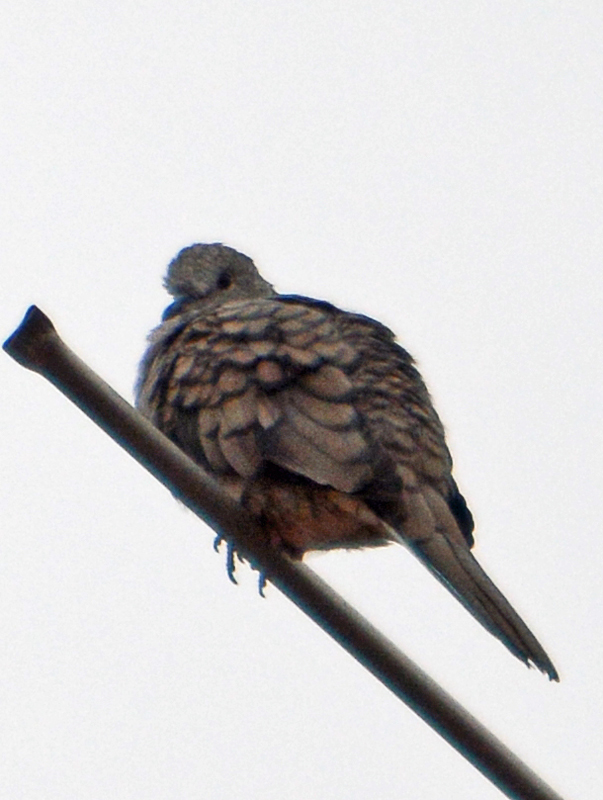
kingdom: Animalia
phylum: Chordata
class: Aves
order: Columbiformes
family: Columbidae
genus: Columbina
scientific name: Columbina inca
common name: Inca dove
